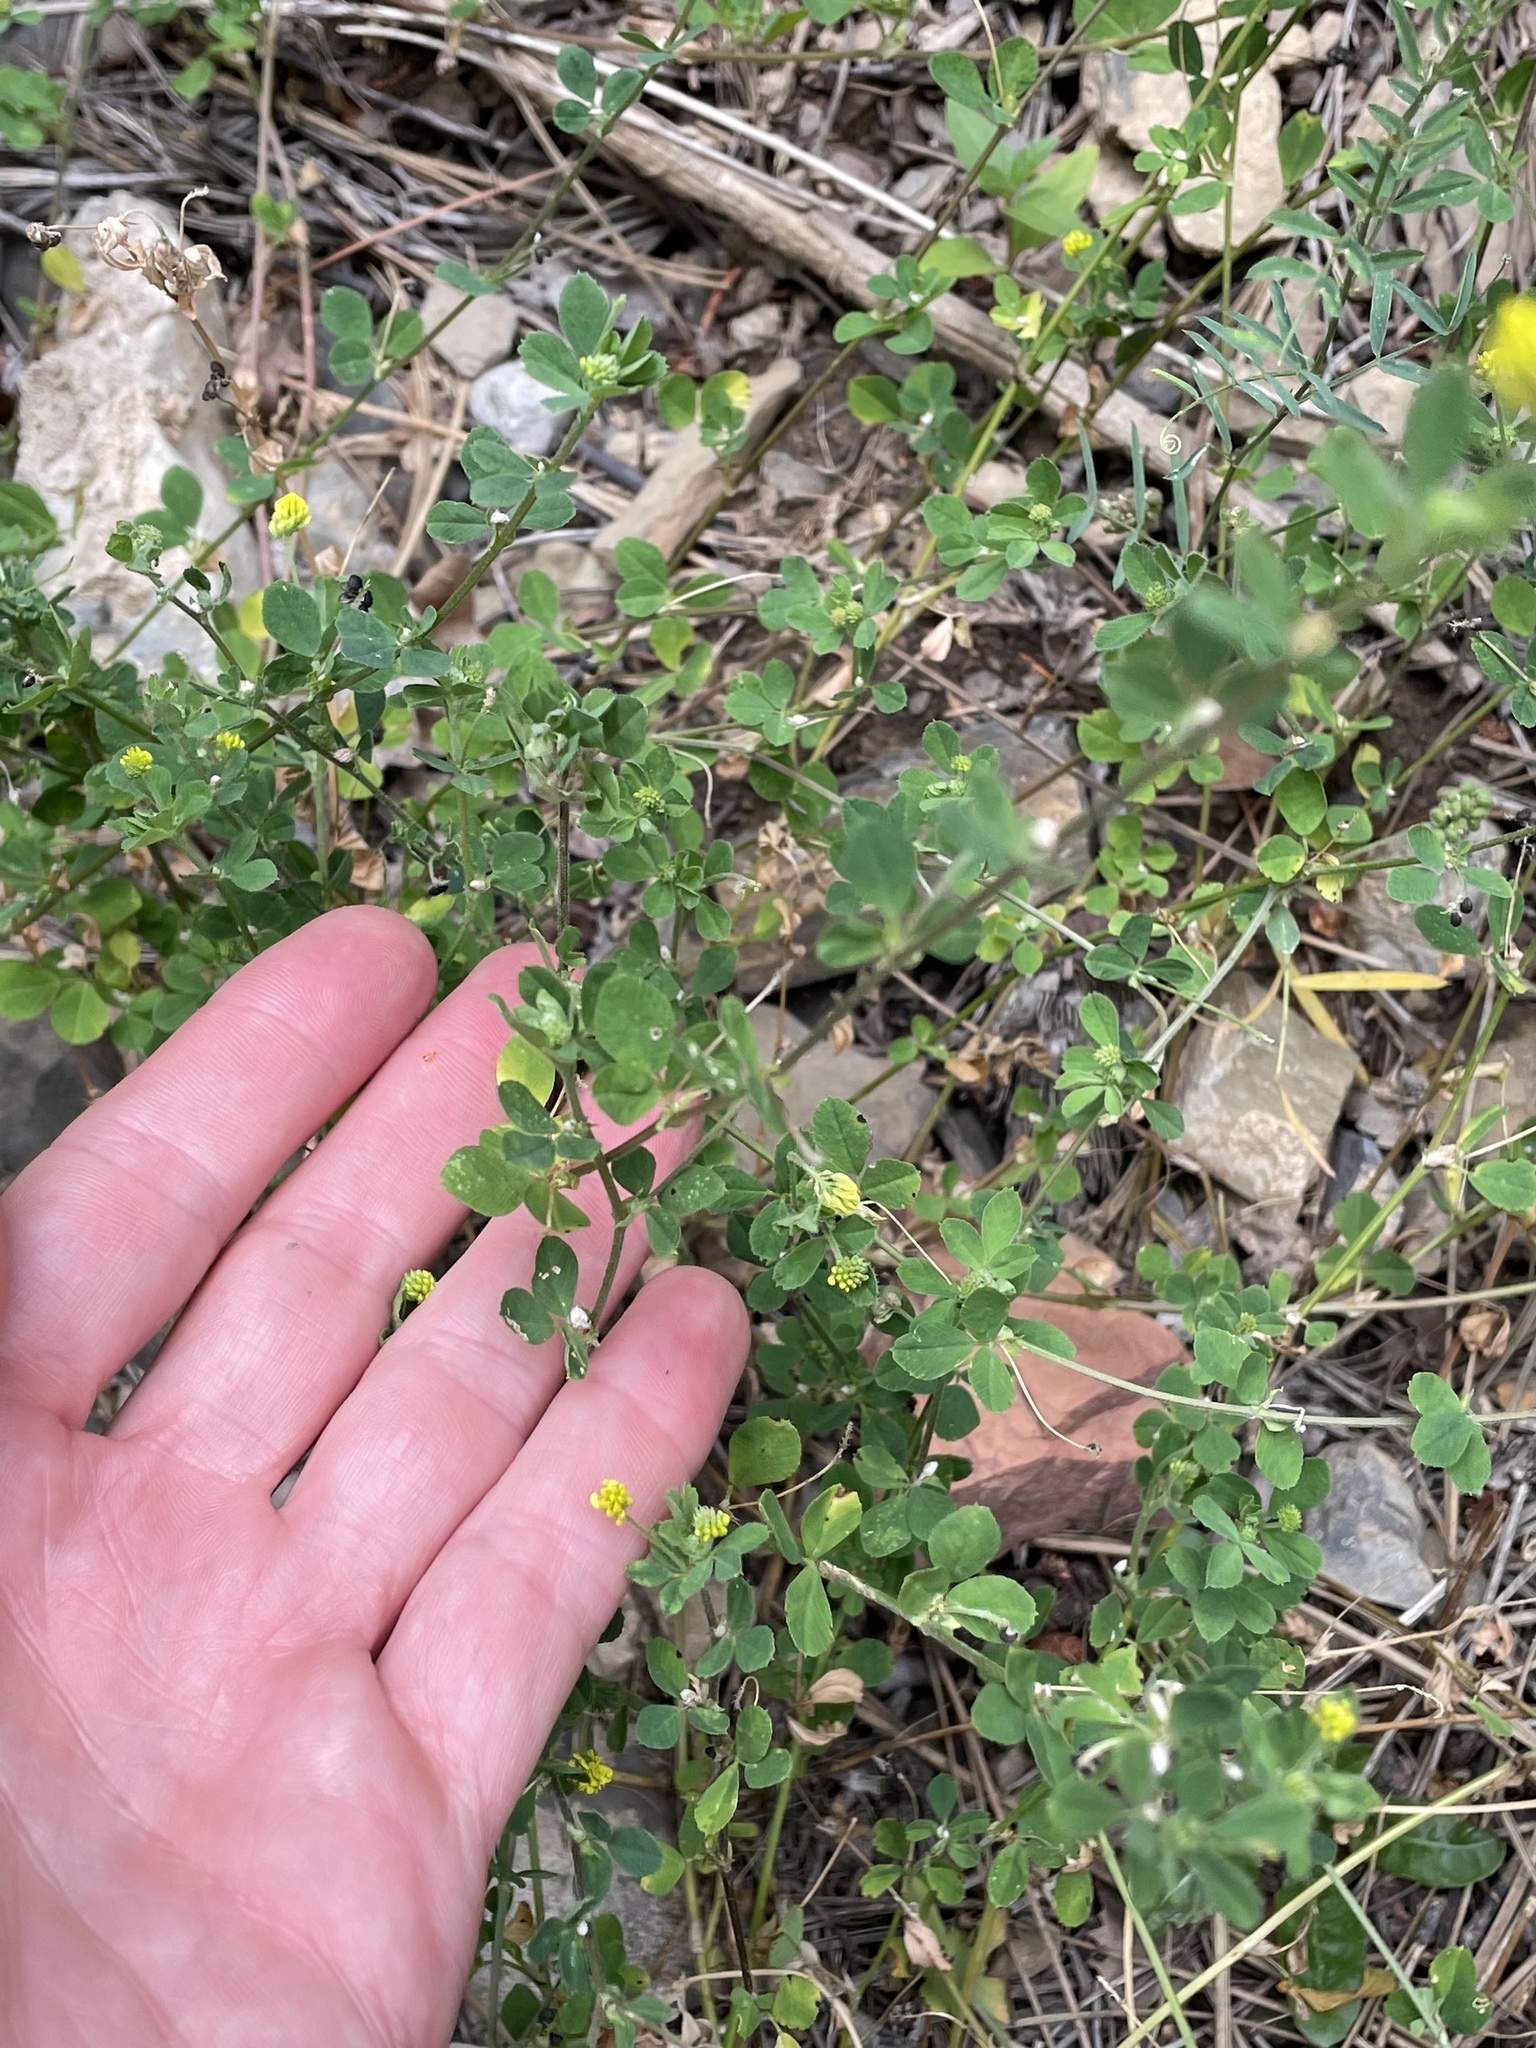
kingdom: Plantae
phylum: Tracheophyta
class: Magnoliopsida
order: Fabales
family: Fabaceae
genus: Medicago
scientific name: Medicago lupulina
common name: Black medick
